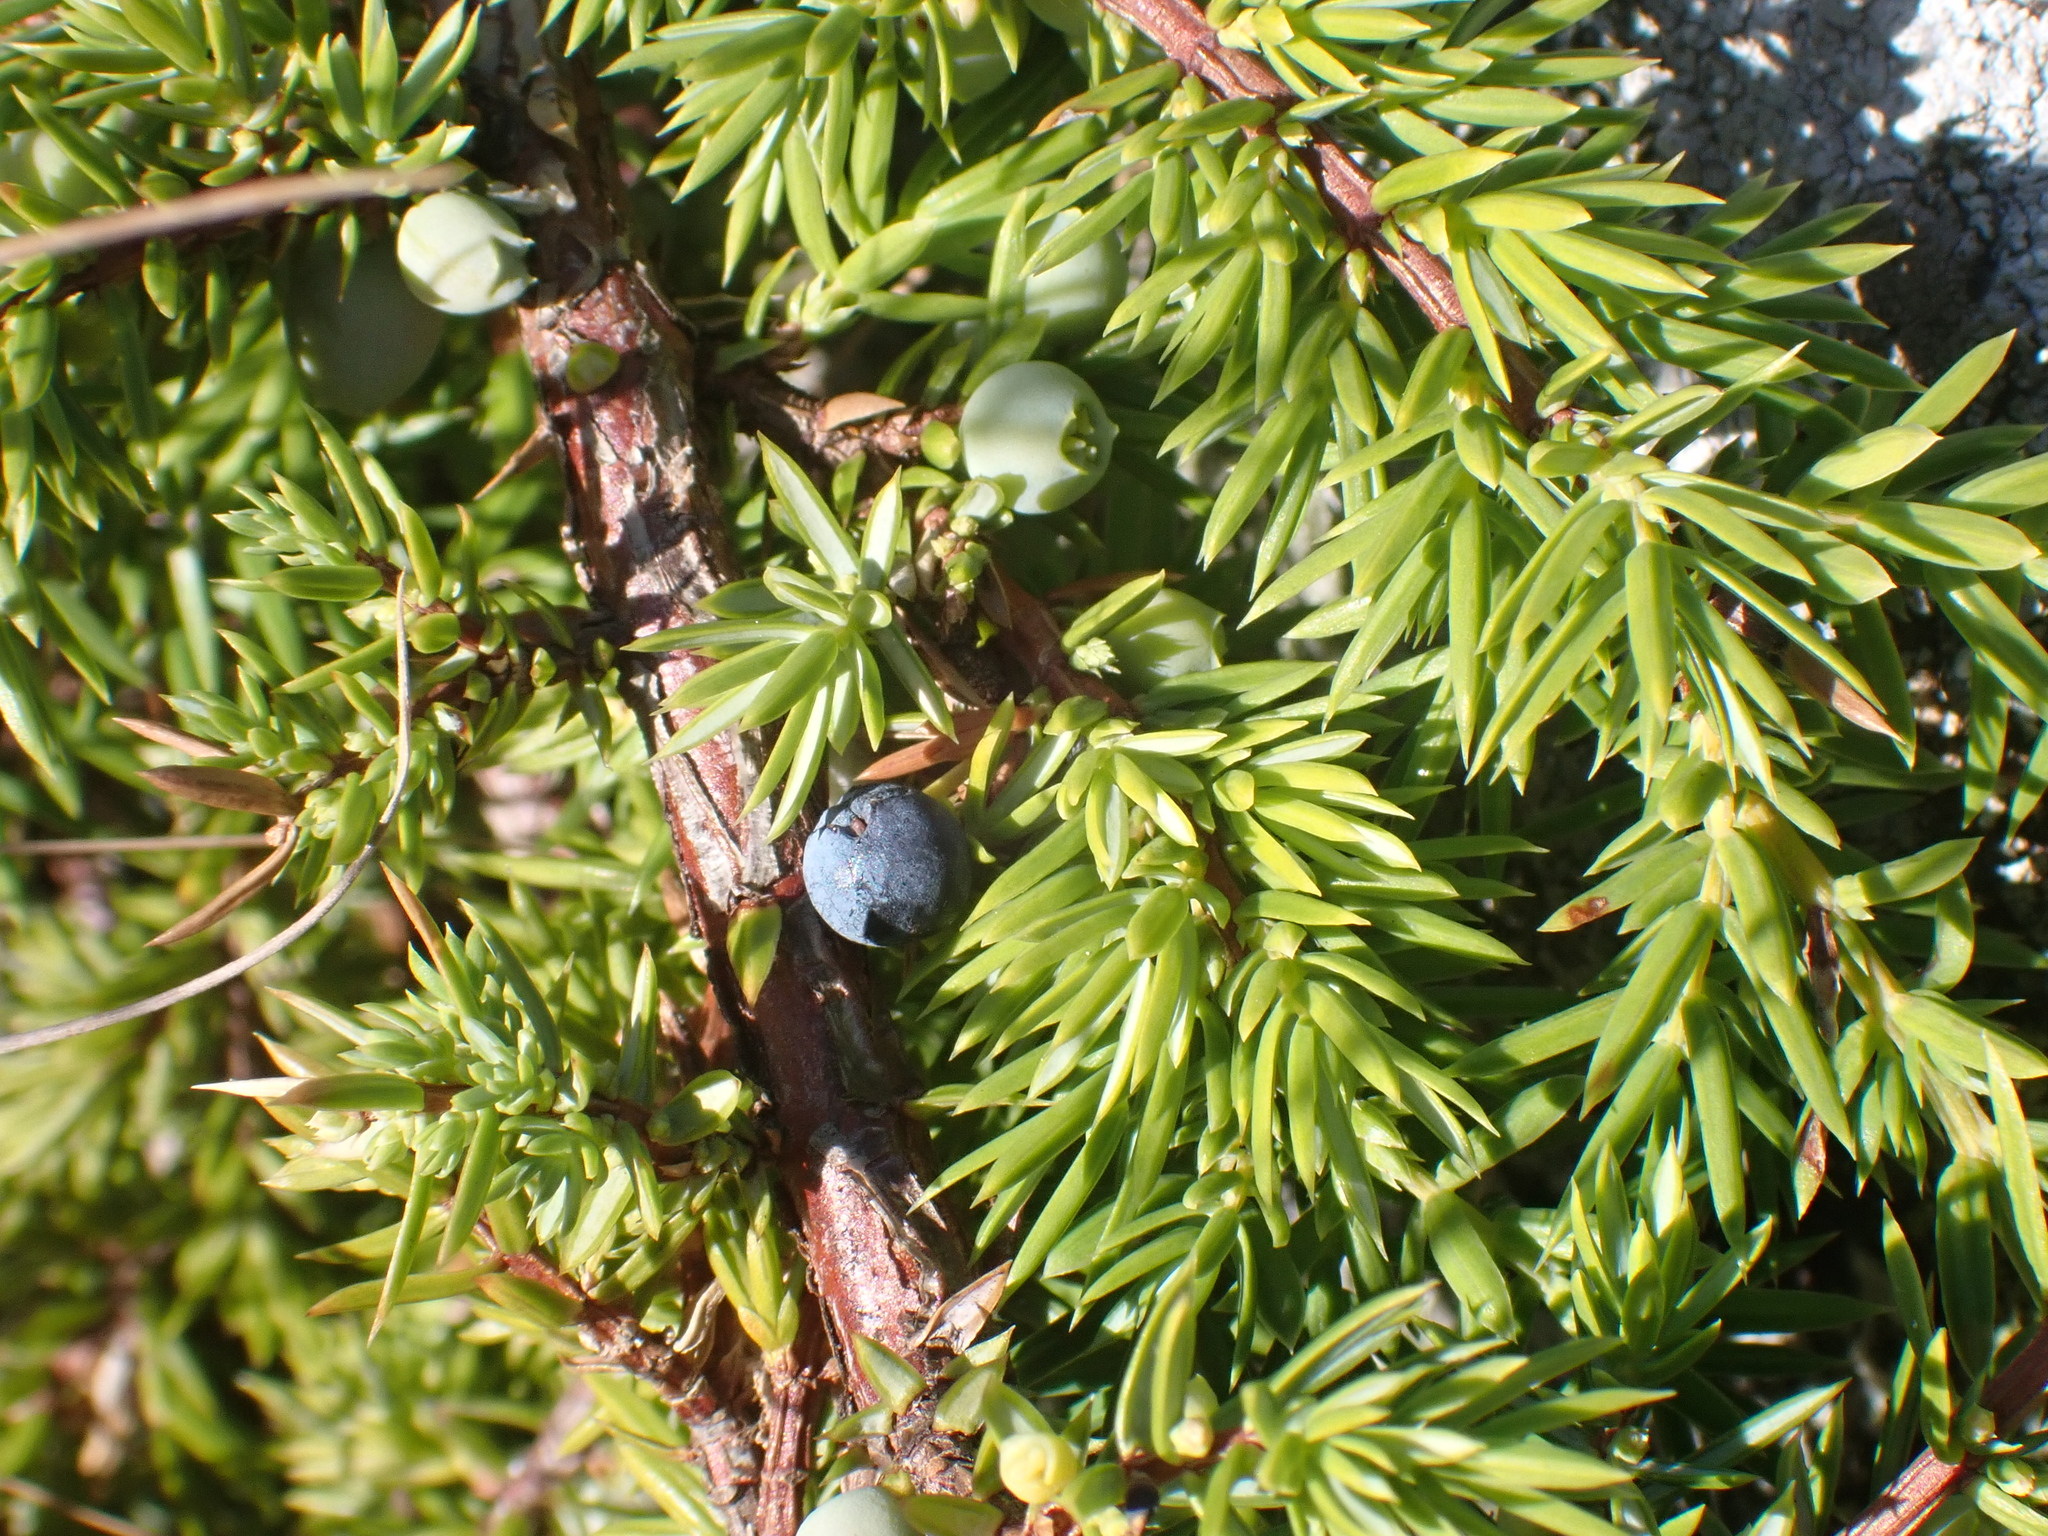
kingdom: Plantae
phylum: Tracheophyta
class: Pinopsida
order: Pinales
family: Cupressaceae
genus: Juniperus
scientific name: Juniperus communis
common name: Common juniper
